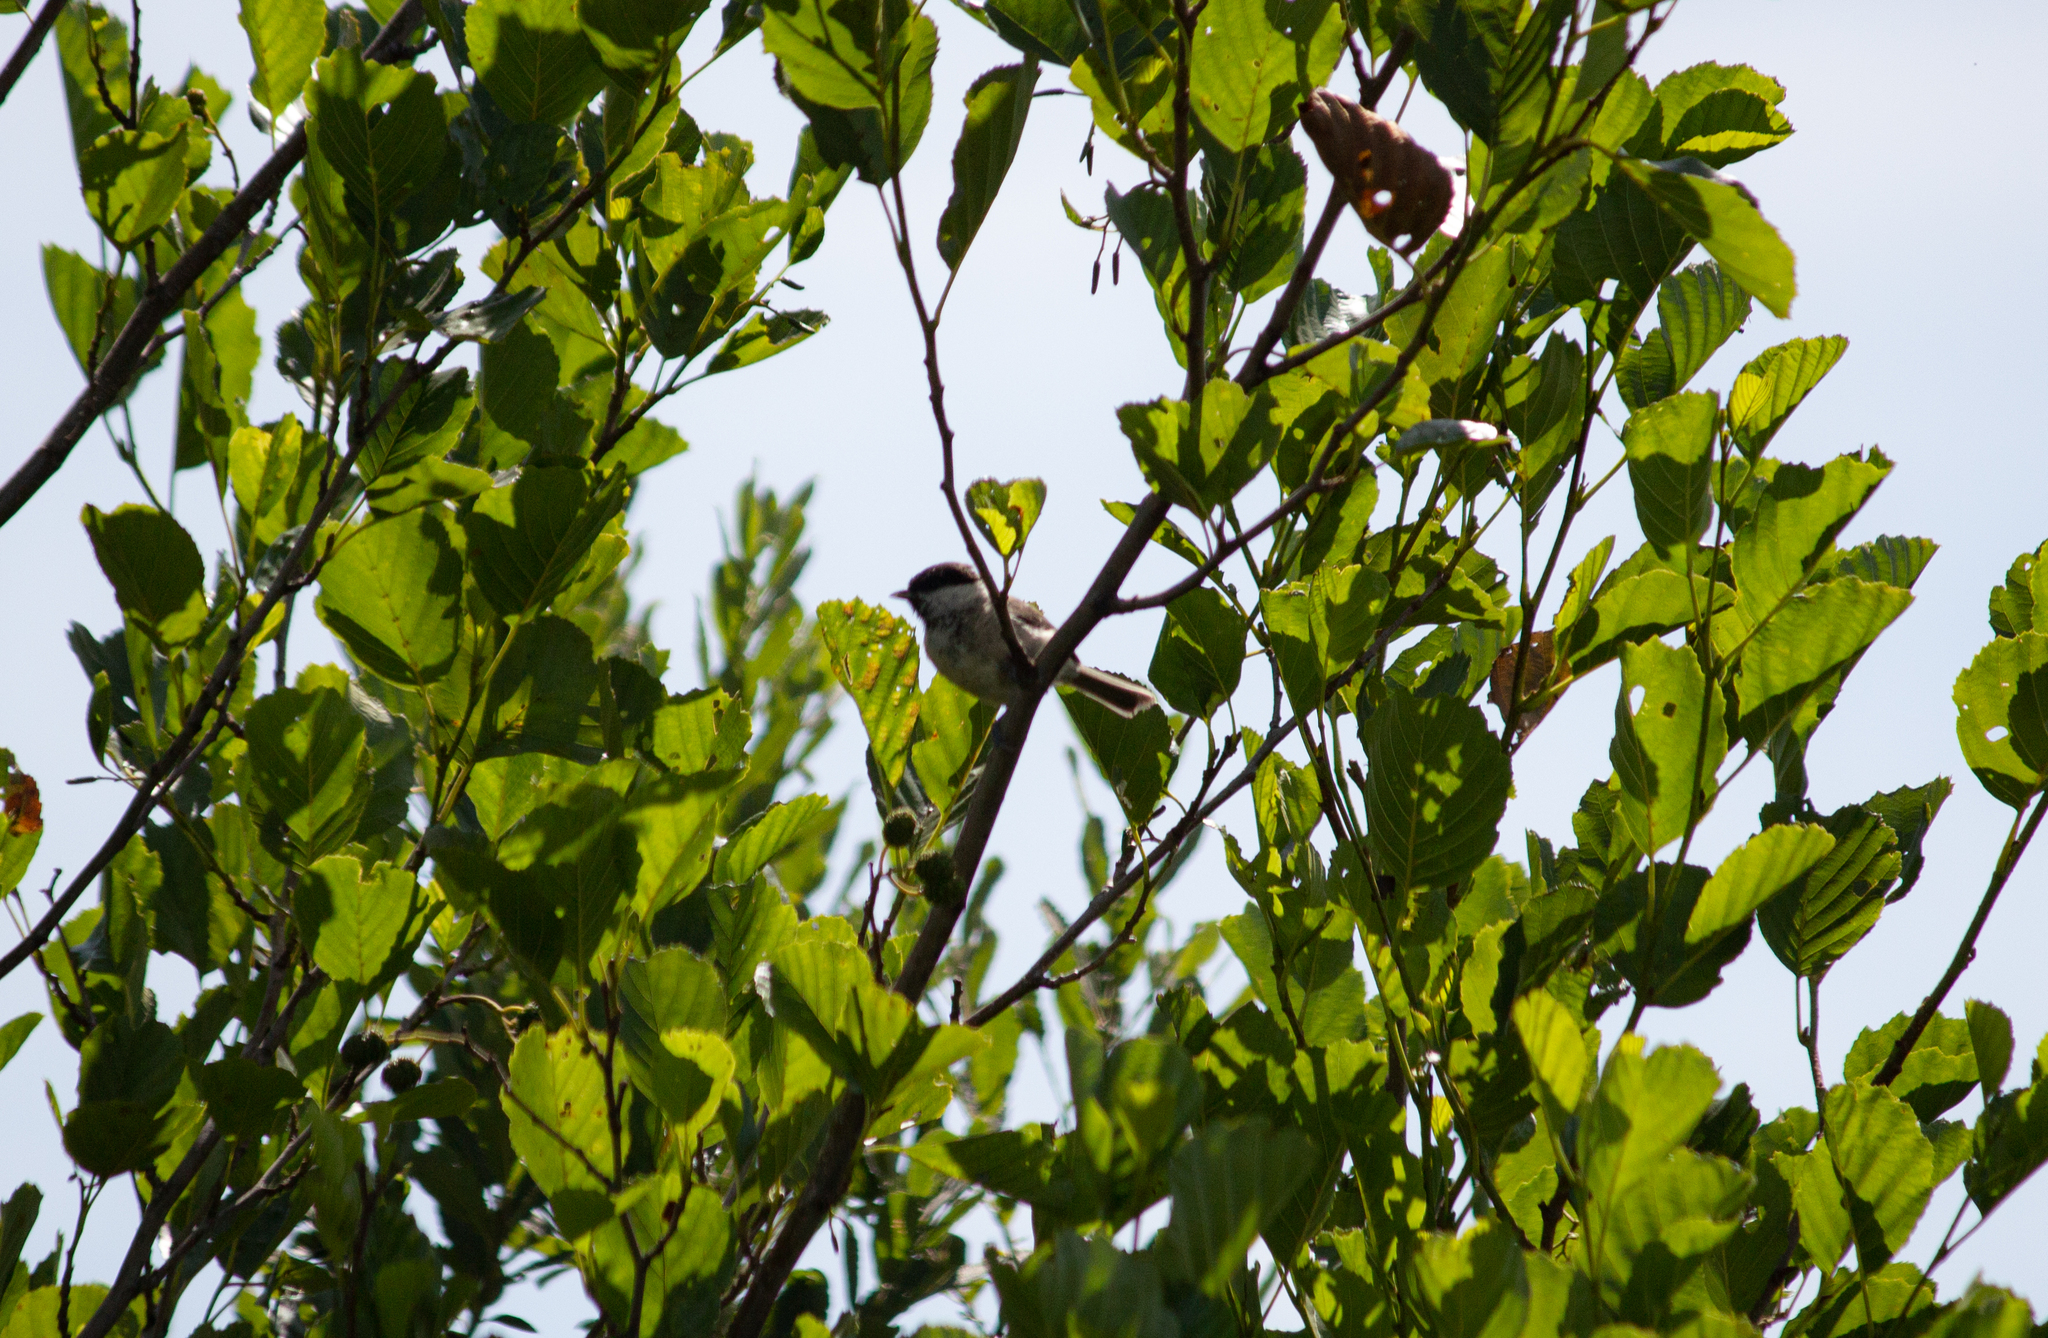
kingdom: Animalia
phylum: Chordata
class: Aves
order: Passeriformes
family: Paridae
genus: Poecile
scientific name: Poecile palustris
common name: Marsh tit
